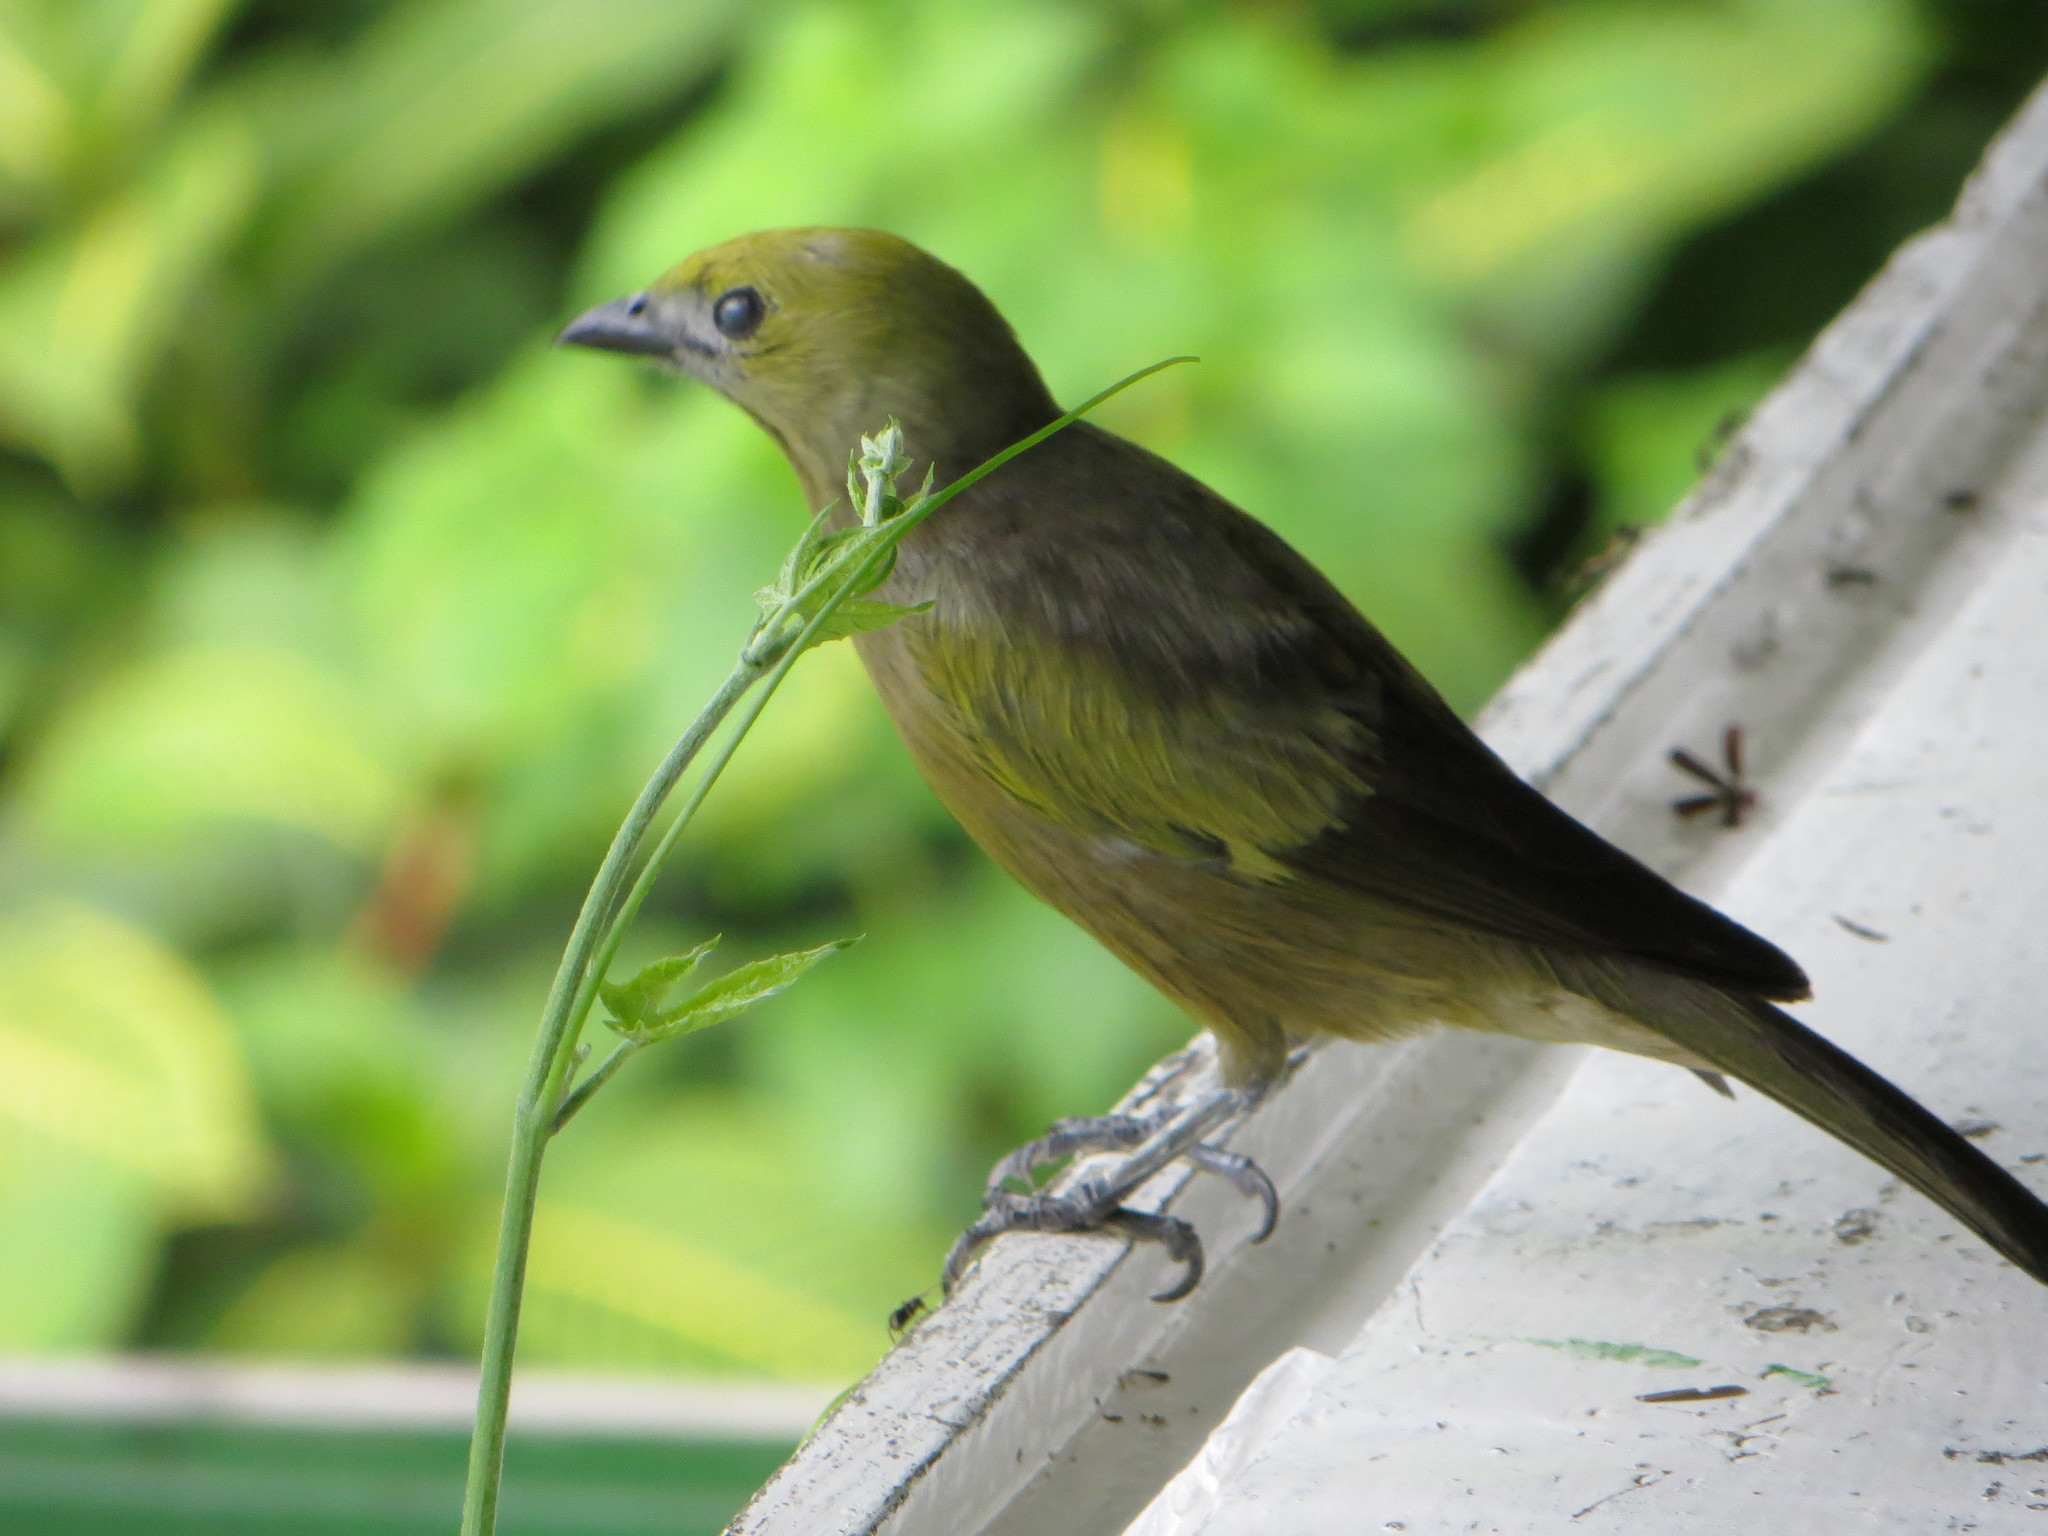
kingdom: Animalia
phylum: Chordata
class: Aves
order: Passeriformes
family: Thraupidae
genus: Thraupis
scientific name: Thraupis palmarum
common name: Palm tanager
